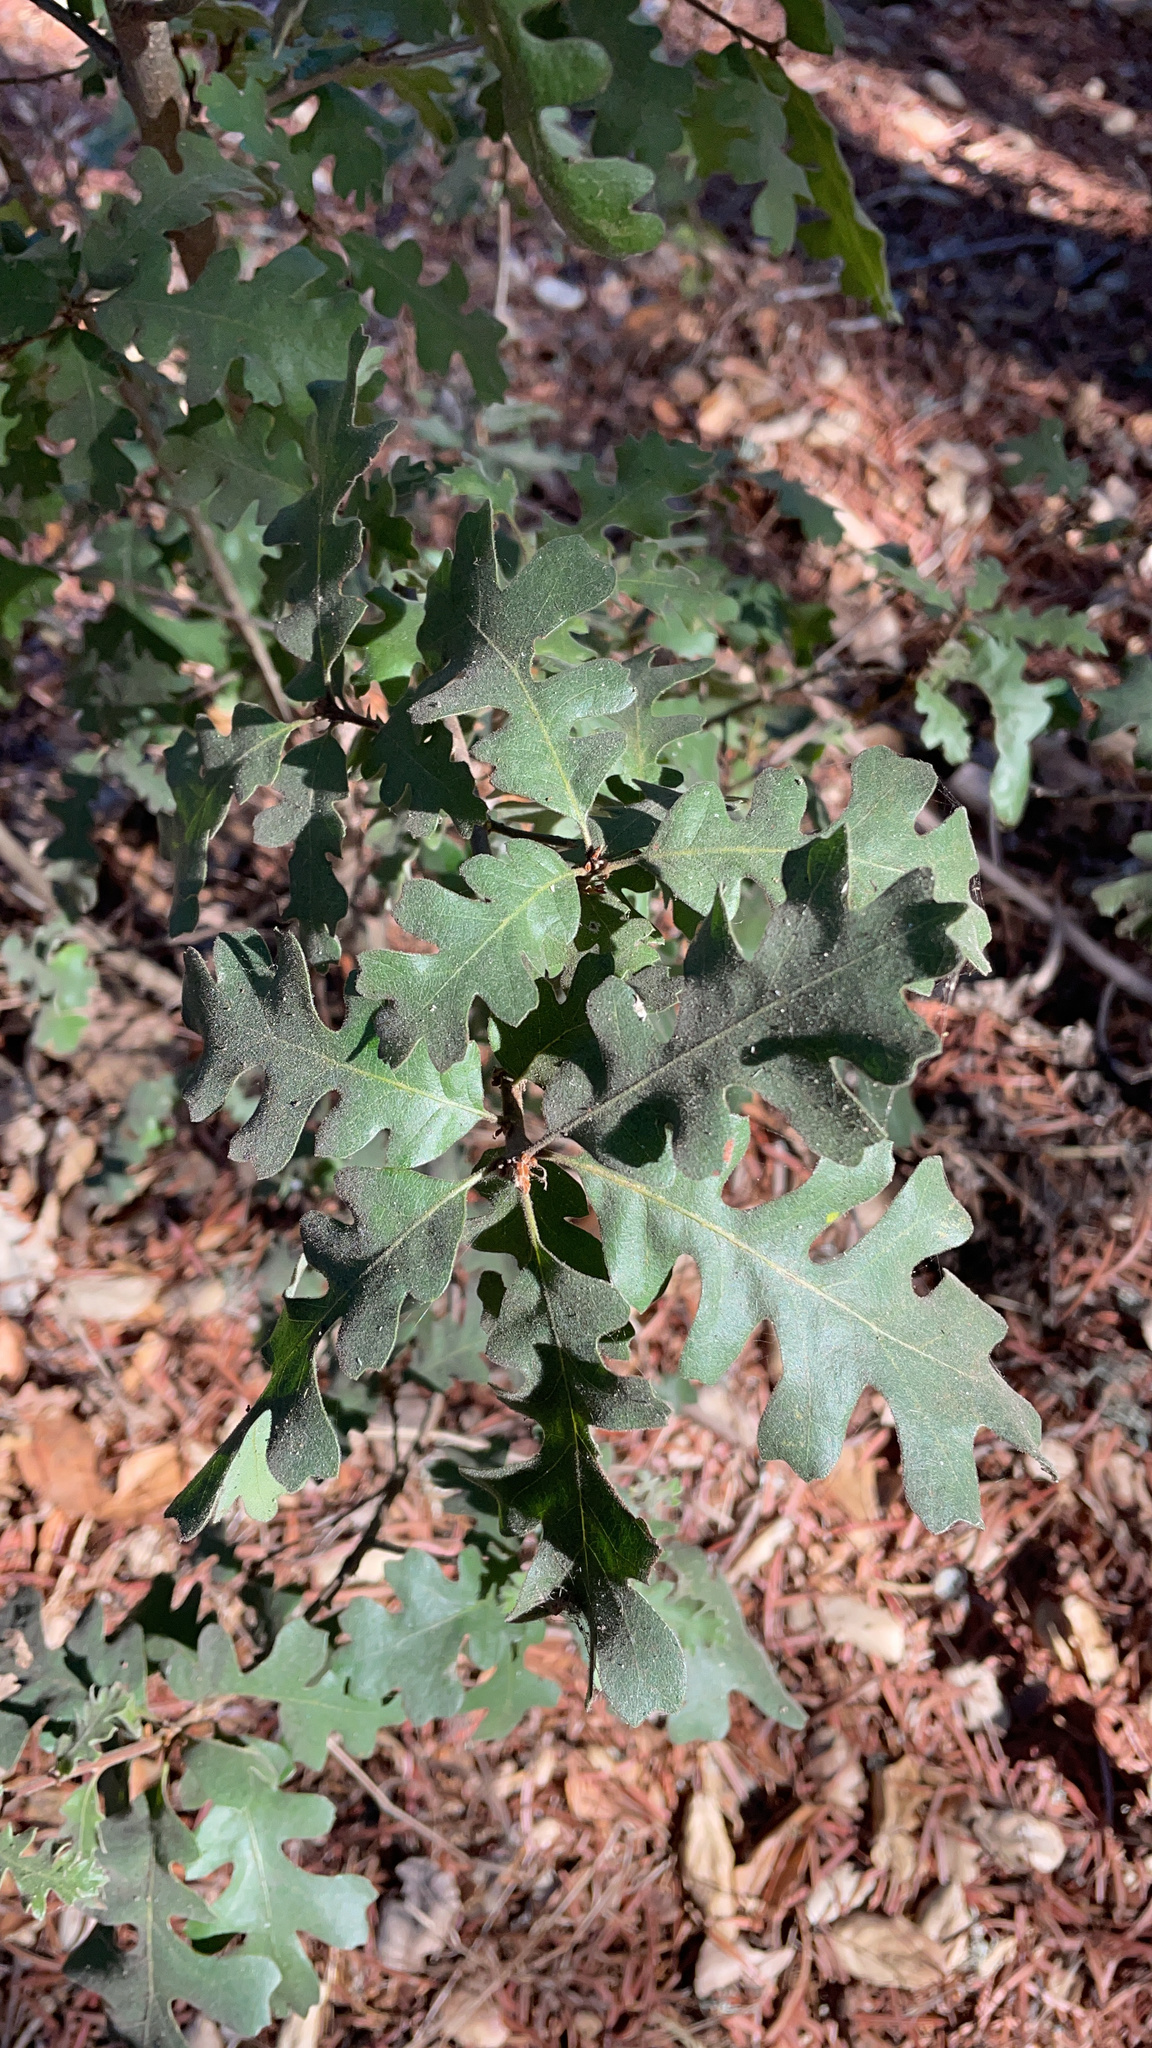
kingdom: Plantae
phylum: Tracheophyta
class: Magnoliopsida
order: Fagales
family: Fagaceae
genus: Quercus
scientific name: Quercus lobata
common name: Valley oak
